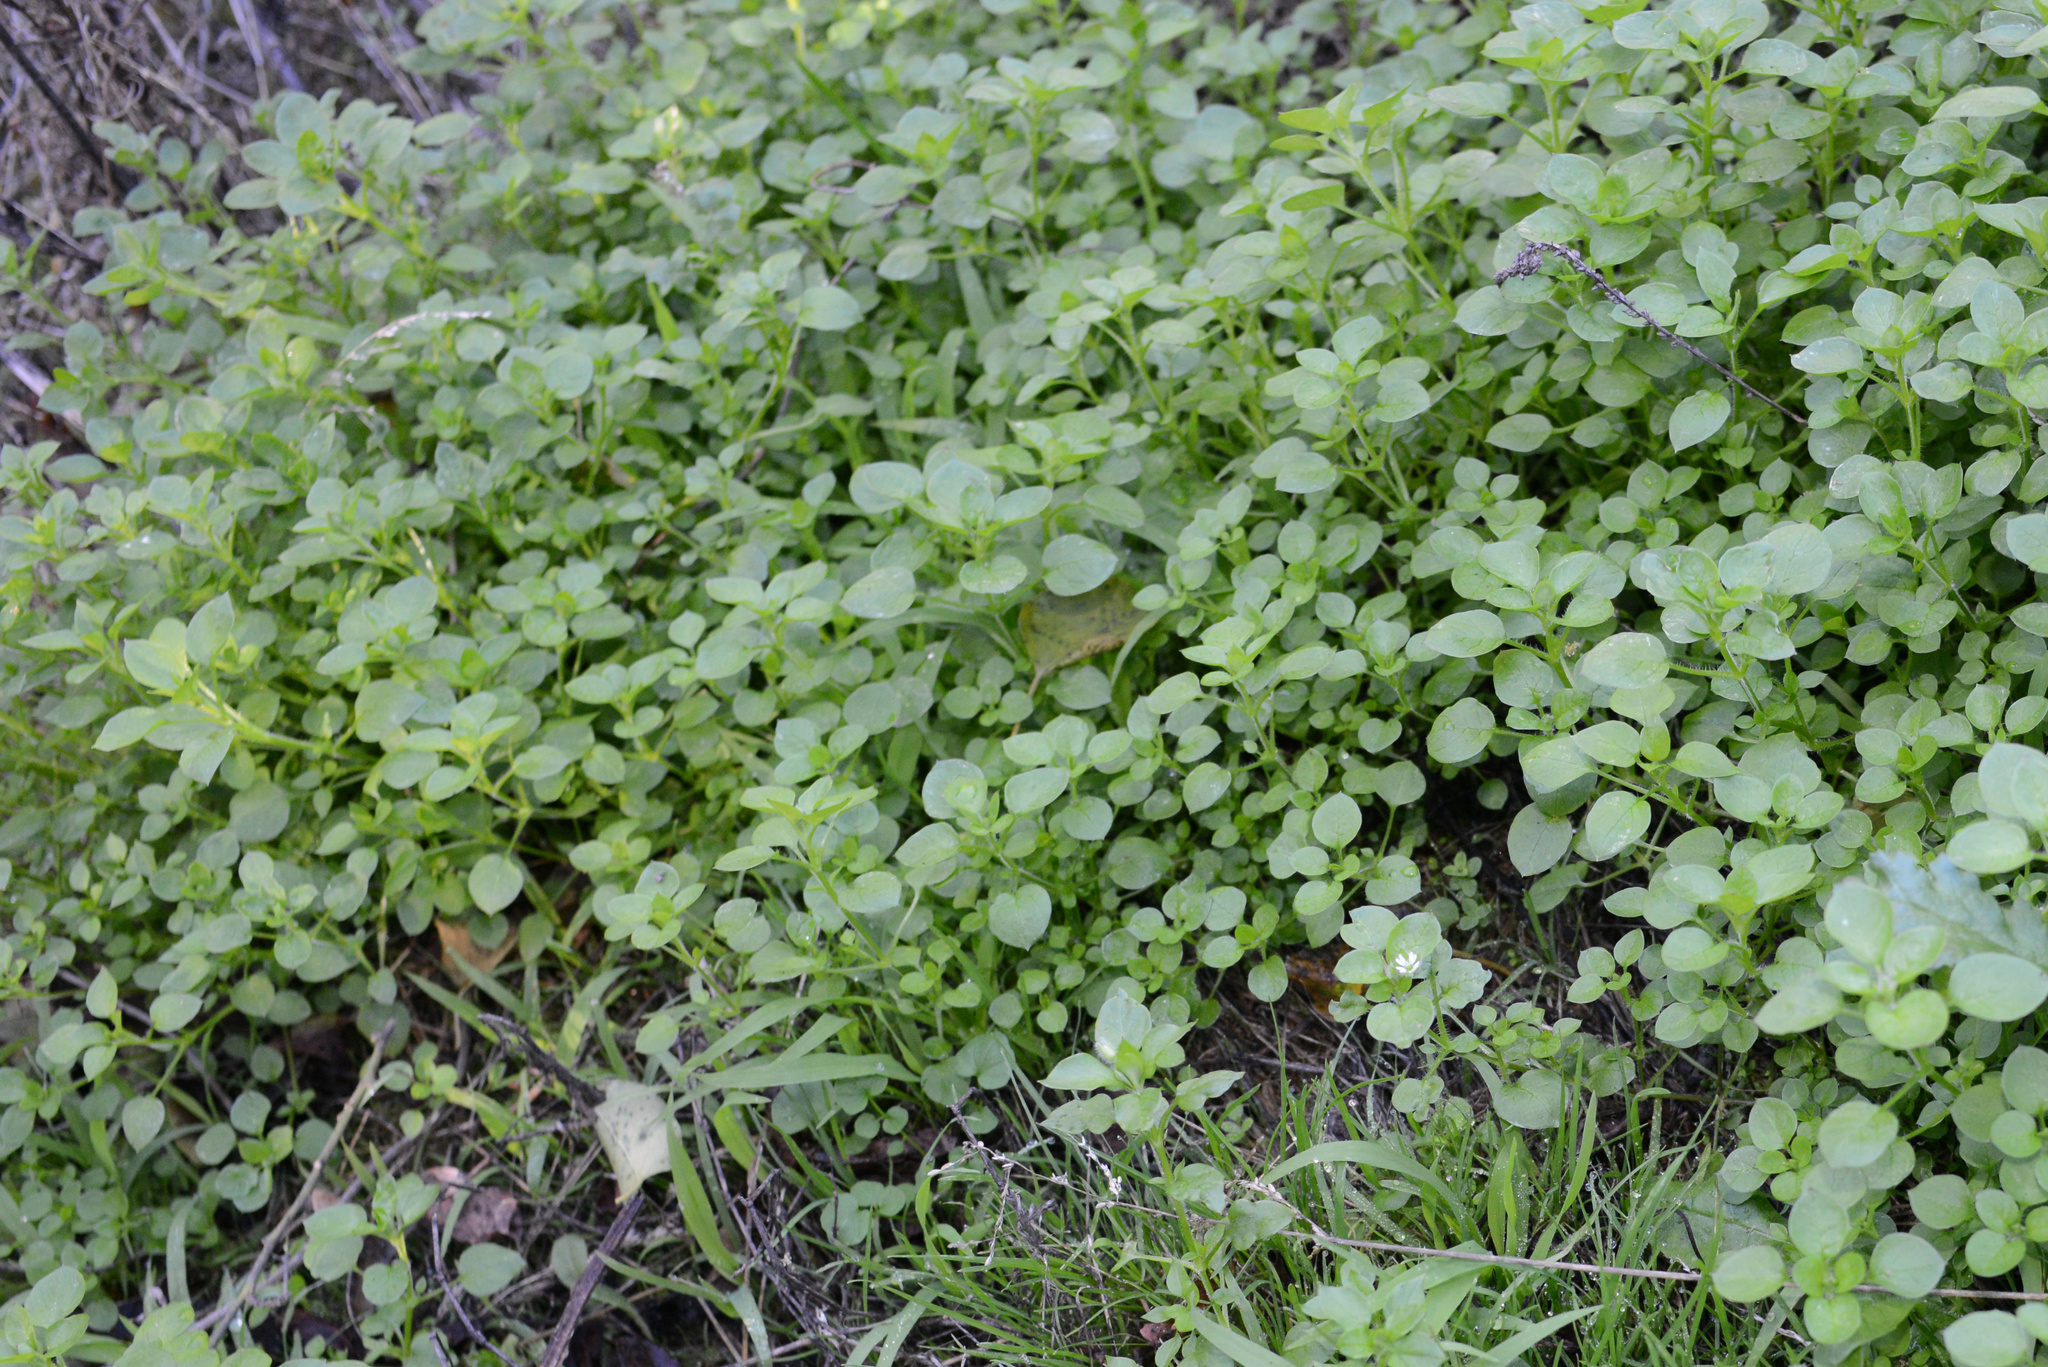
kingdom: Plantae
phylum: Tracheophyta
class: Magnoliopsida
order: Caryophyllales
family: Caryophyllaceae
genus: Stellaria
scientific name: Stellaria media
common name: Common chickweed
